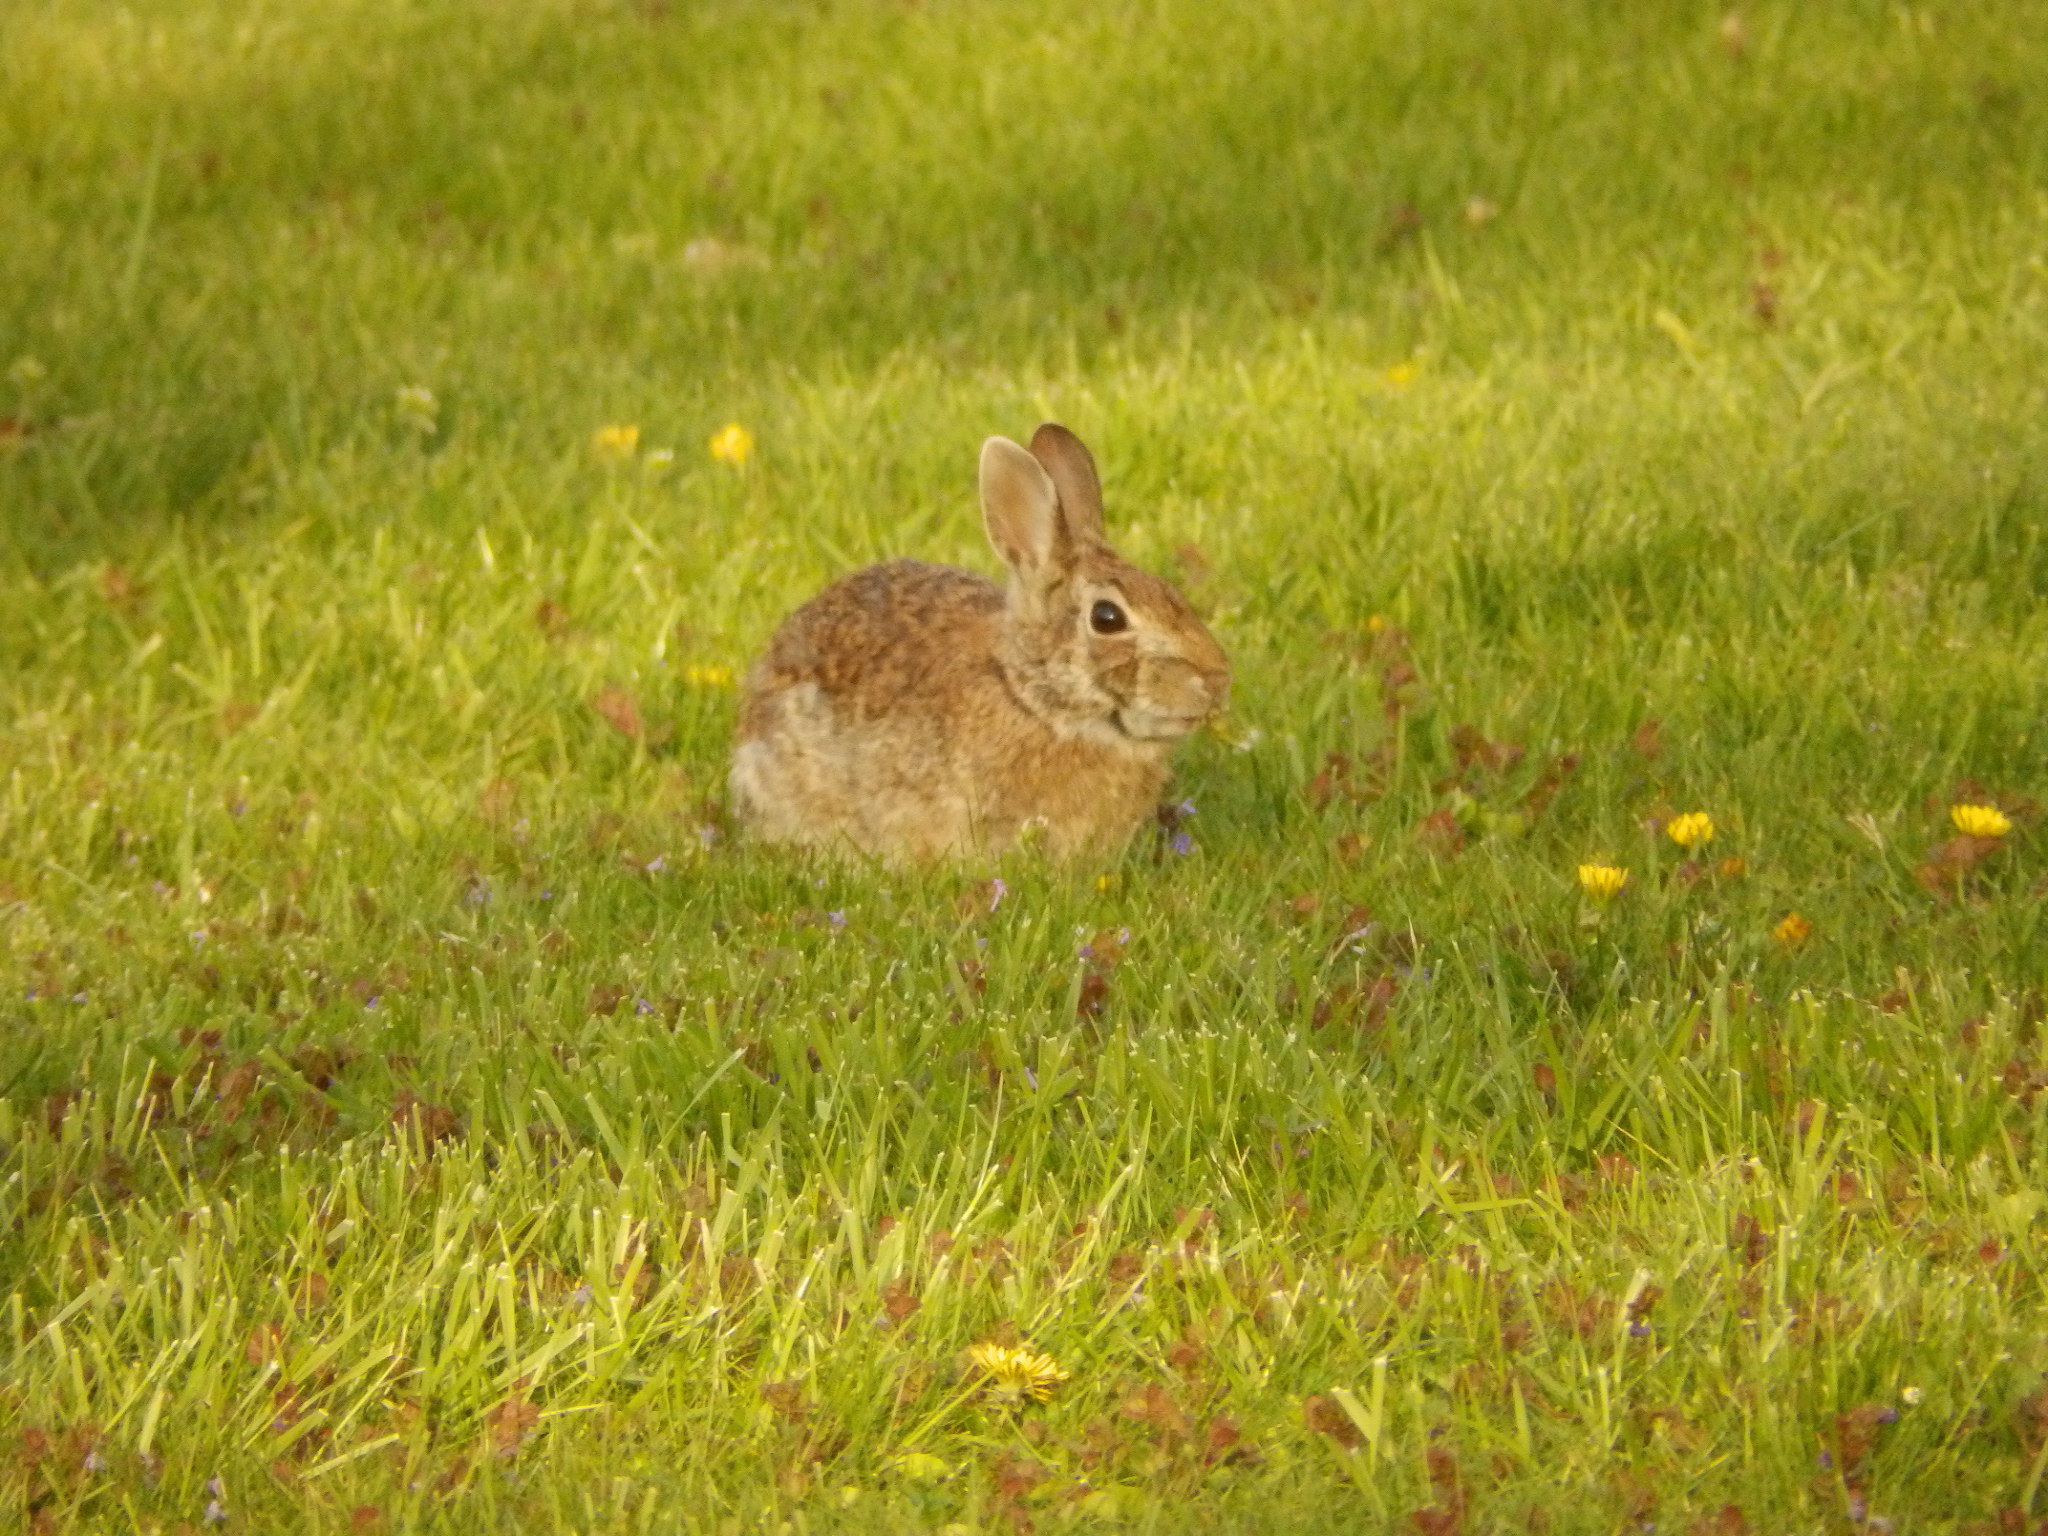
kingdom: Animalia
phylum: Chordata
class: Mammalia
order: Lagomorpha
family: Leporidae
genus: Sylvilagus
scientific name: Sylvilagus floridanus
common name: Eastern cottontail
